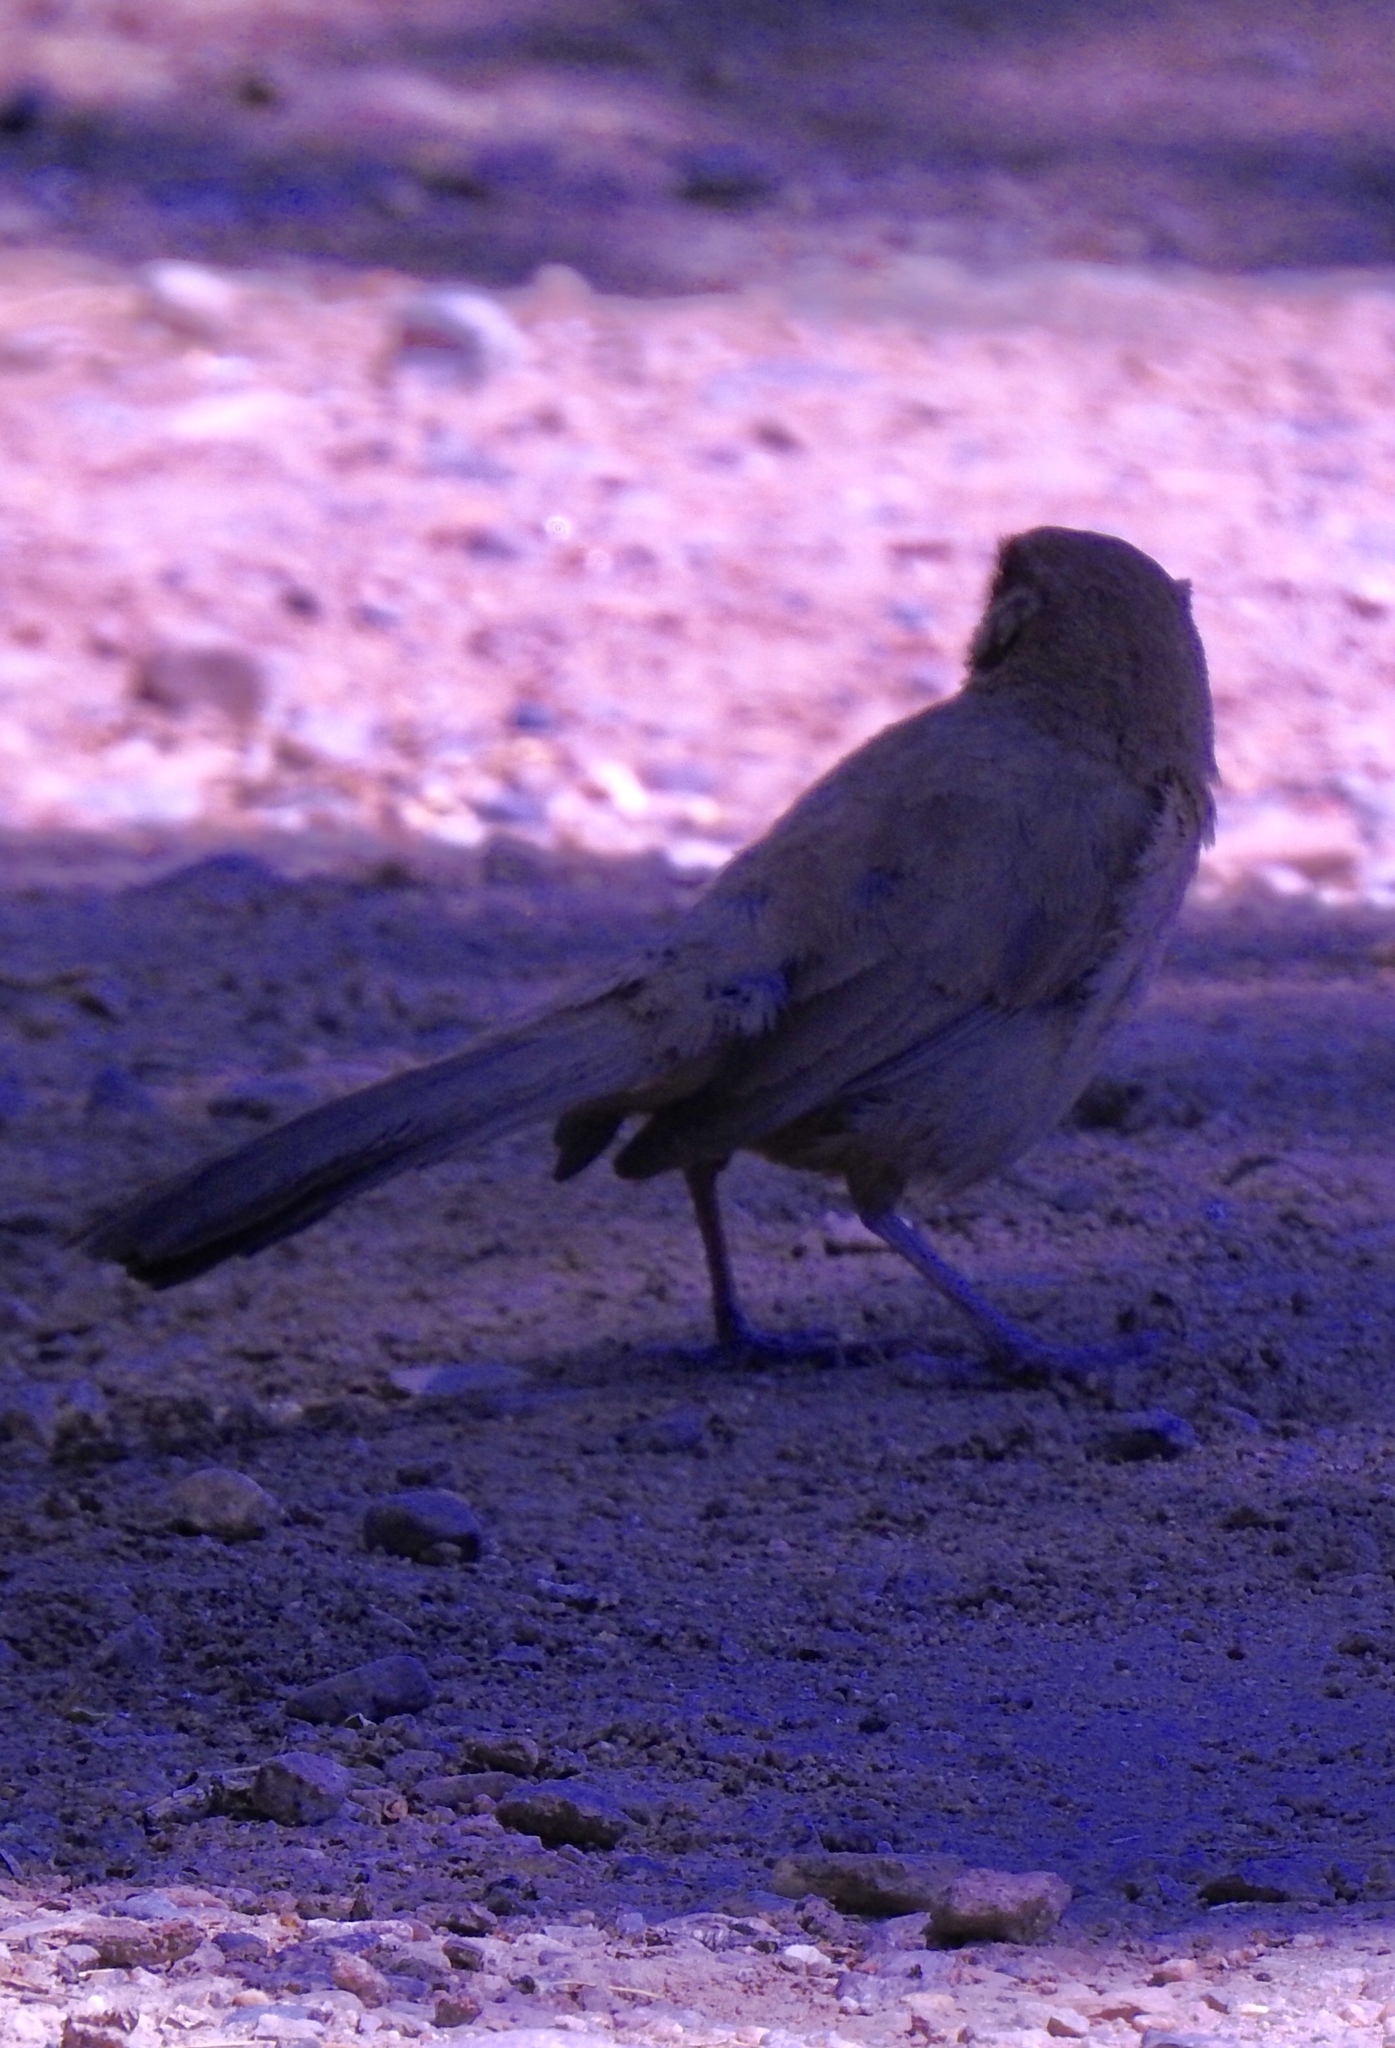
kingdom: Animalia
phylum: Chordata
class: Aves
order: Passeriformes
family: Passerellidae
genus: Melozone
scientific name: Melozone aberti
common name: Abert's towhee
